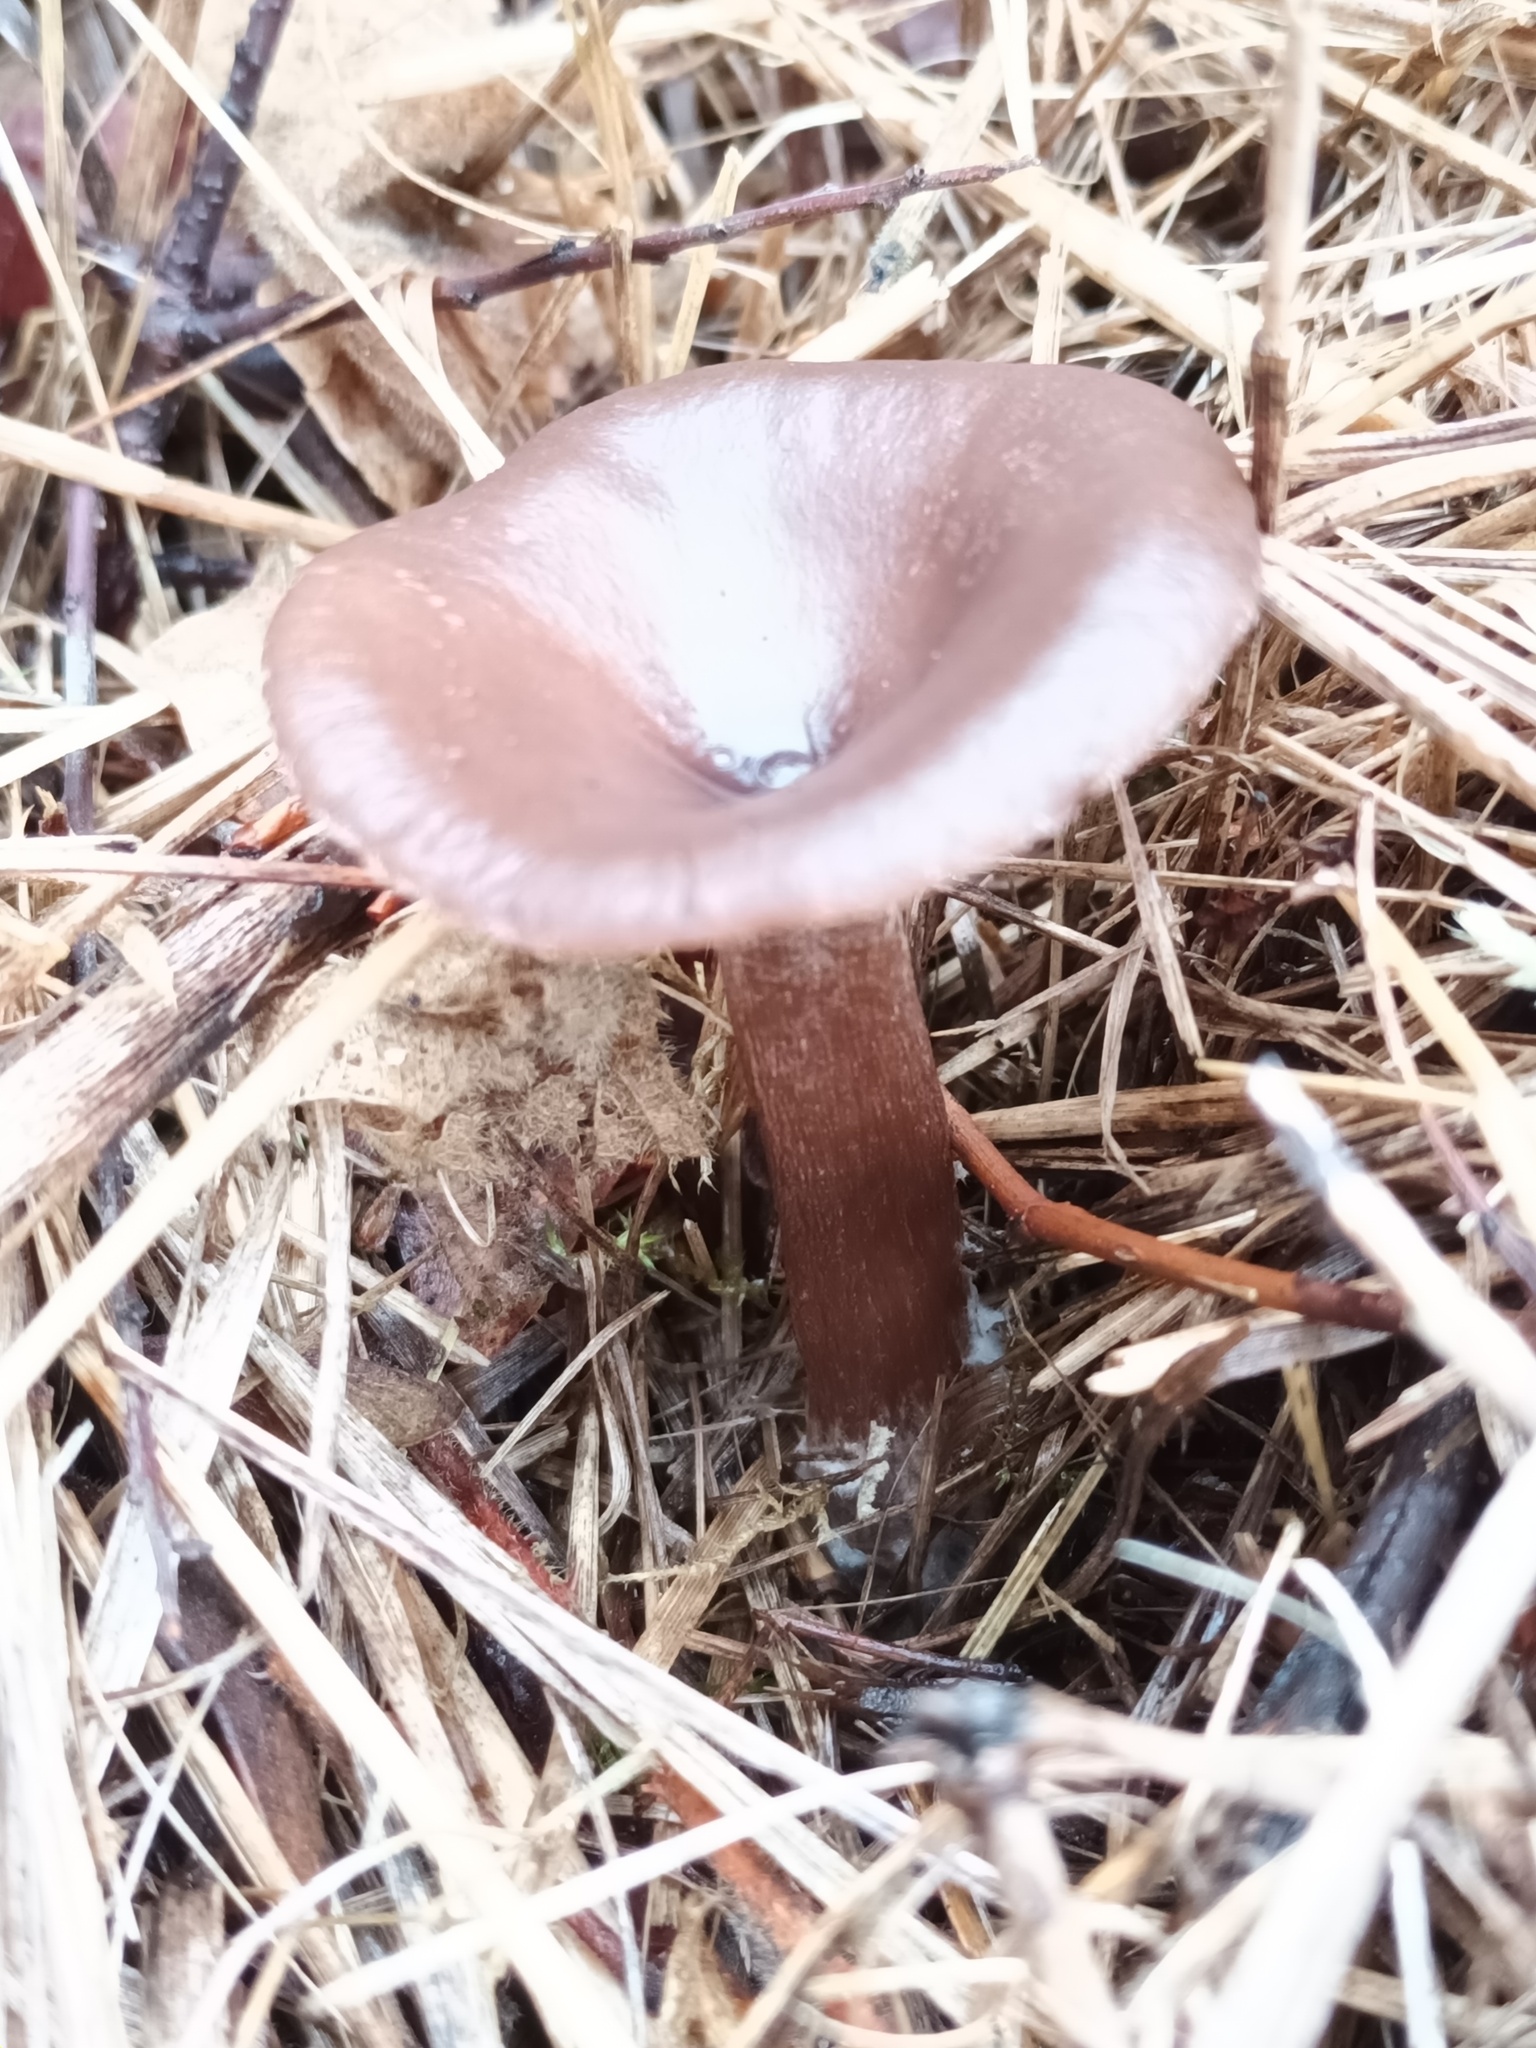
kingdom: Fungi
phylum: Basidiomycota
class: Agaricomycetes
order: Agaricales
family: Pseudoclitocybaceae
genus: Pseudoclitocybe
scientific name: Pseudoclitocybe cyathiformis
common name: Goblet
